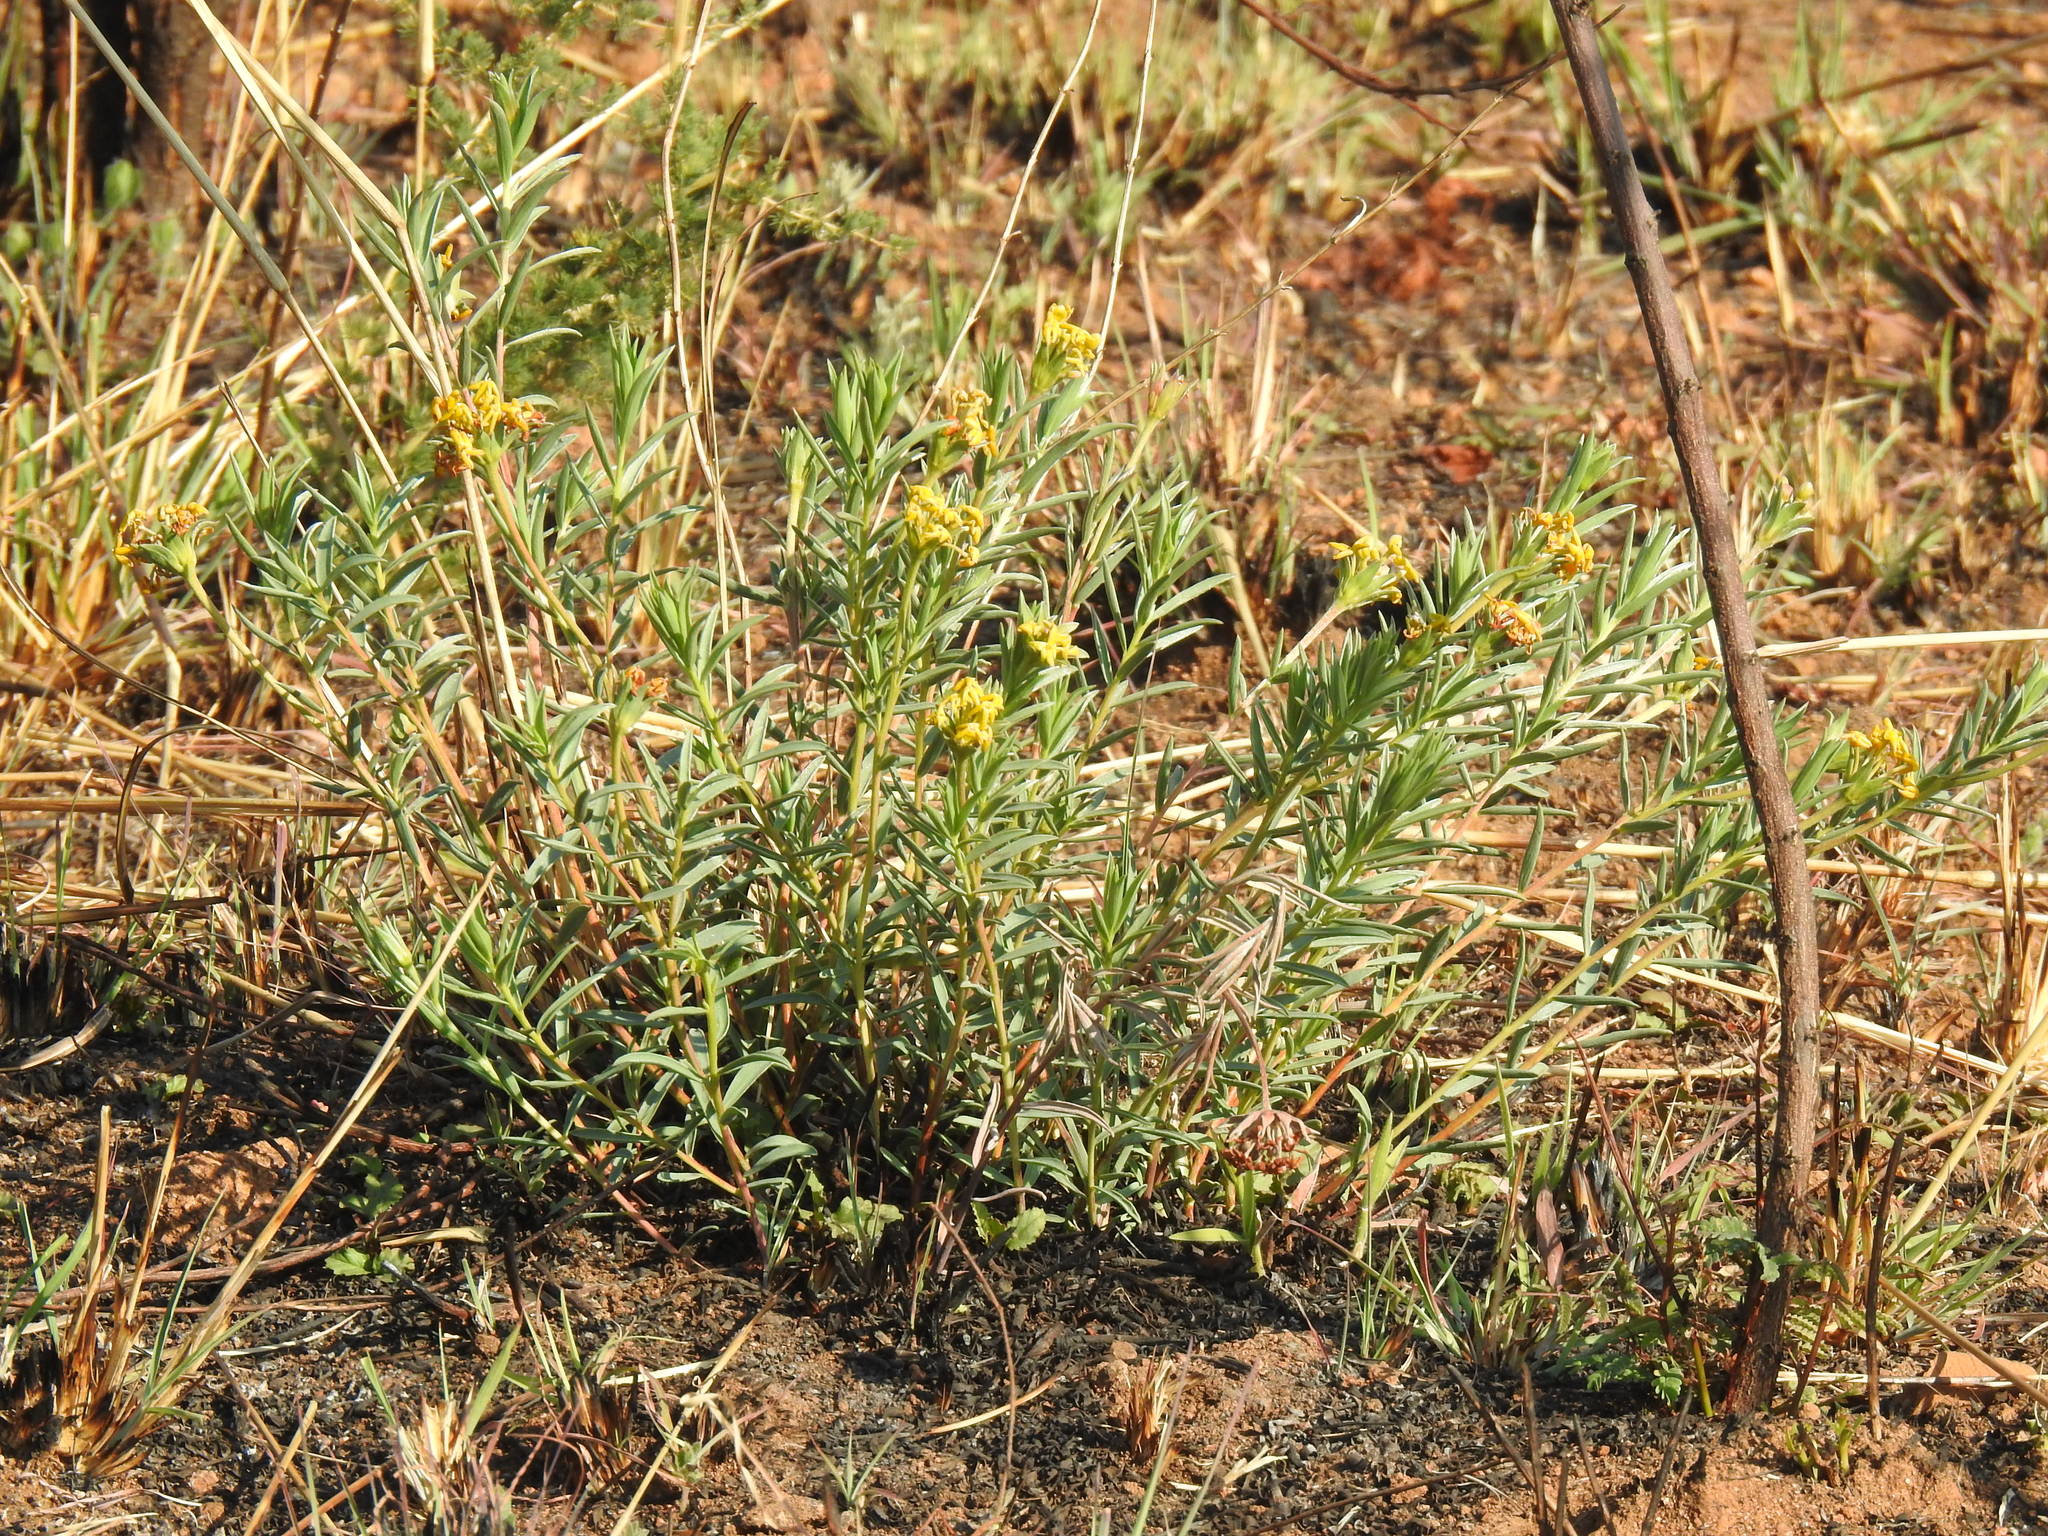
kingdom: Plantae
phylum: Tracheophyta
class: Magnoliopsida
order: Malvales
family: Thymelaeaceae
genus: Gnidia
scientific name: Gnidia capitata
